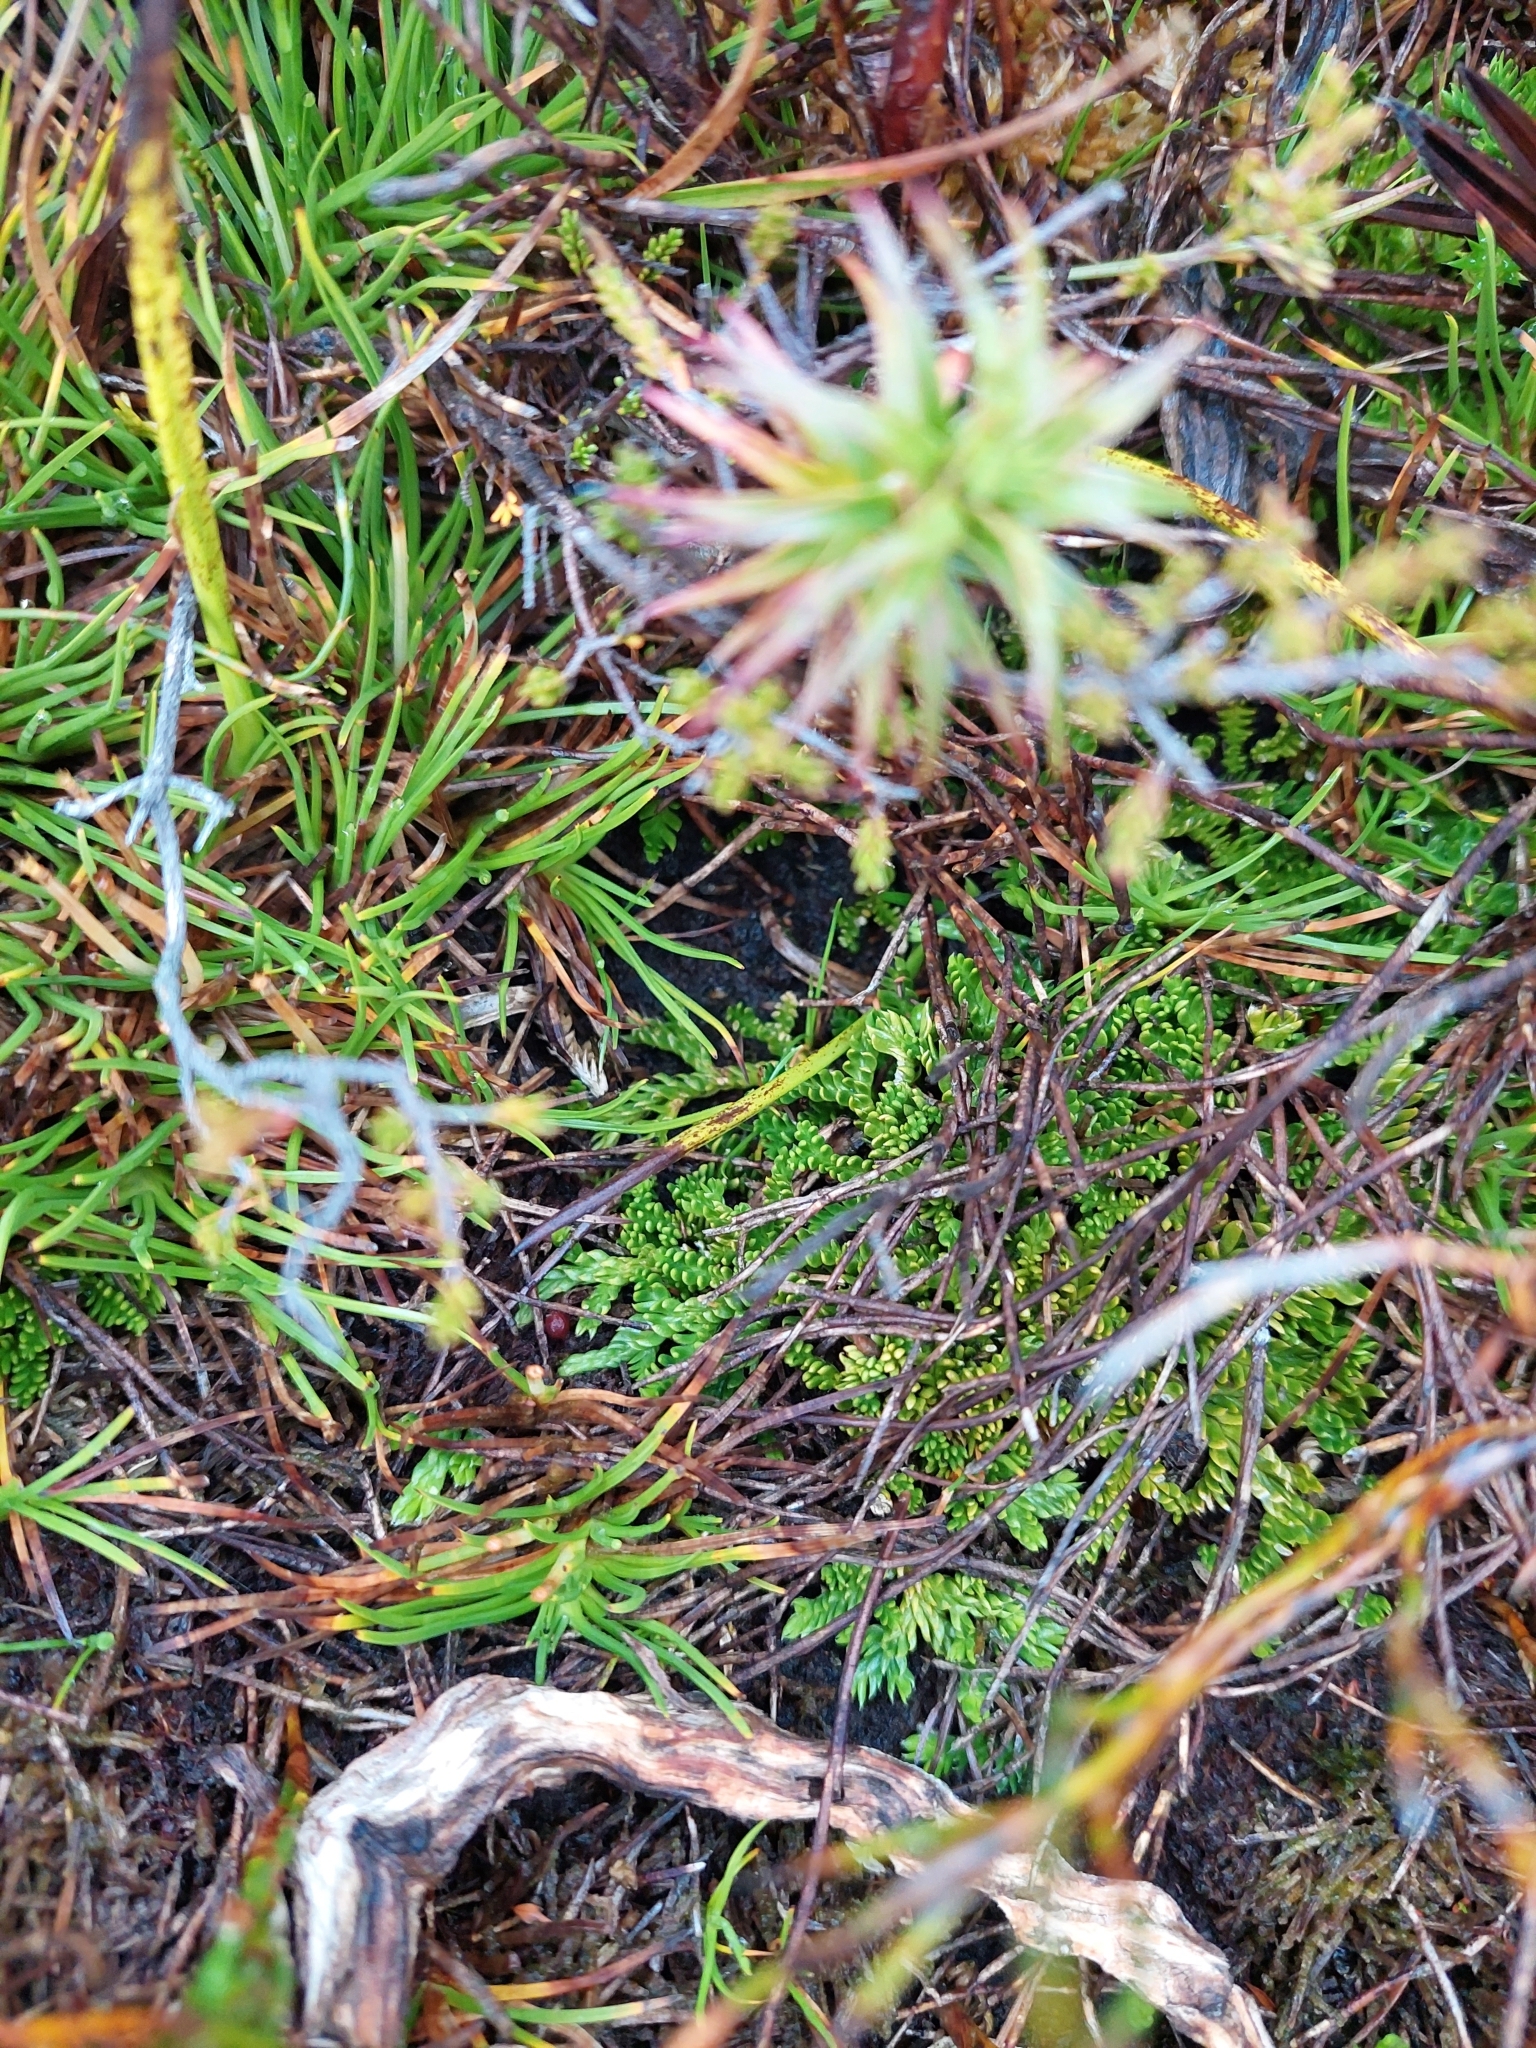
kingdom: Plantae
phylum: Tracheophyta
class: Lycopodiopsida
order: Lycopodiales
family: Lycopodiaceae
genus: Diphasium
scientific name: Diphasium scariosum
